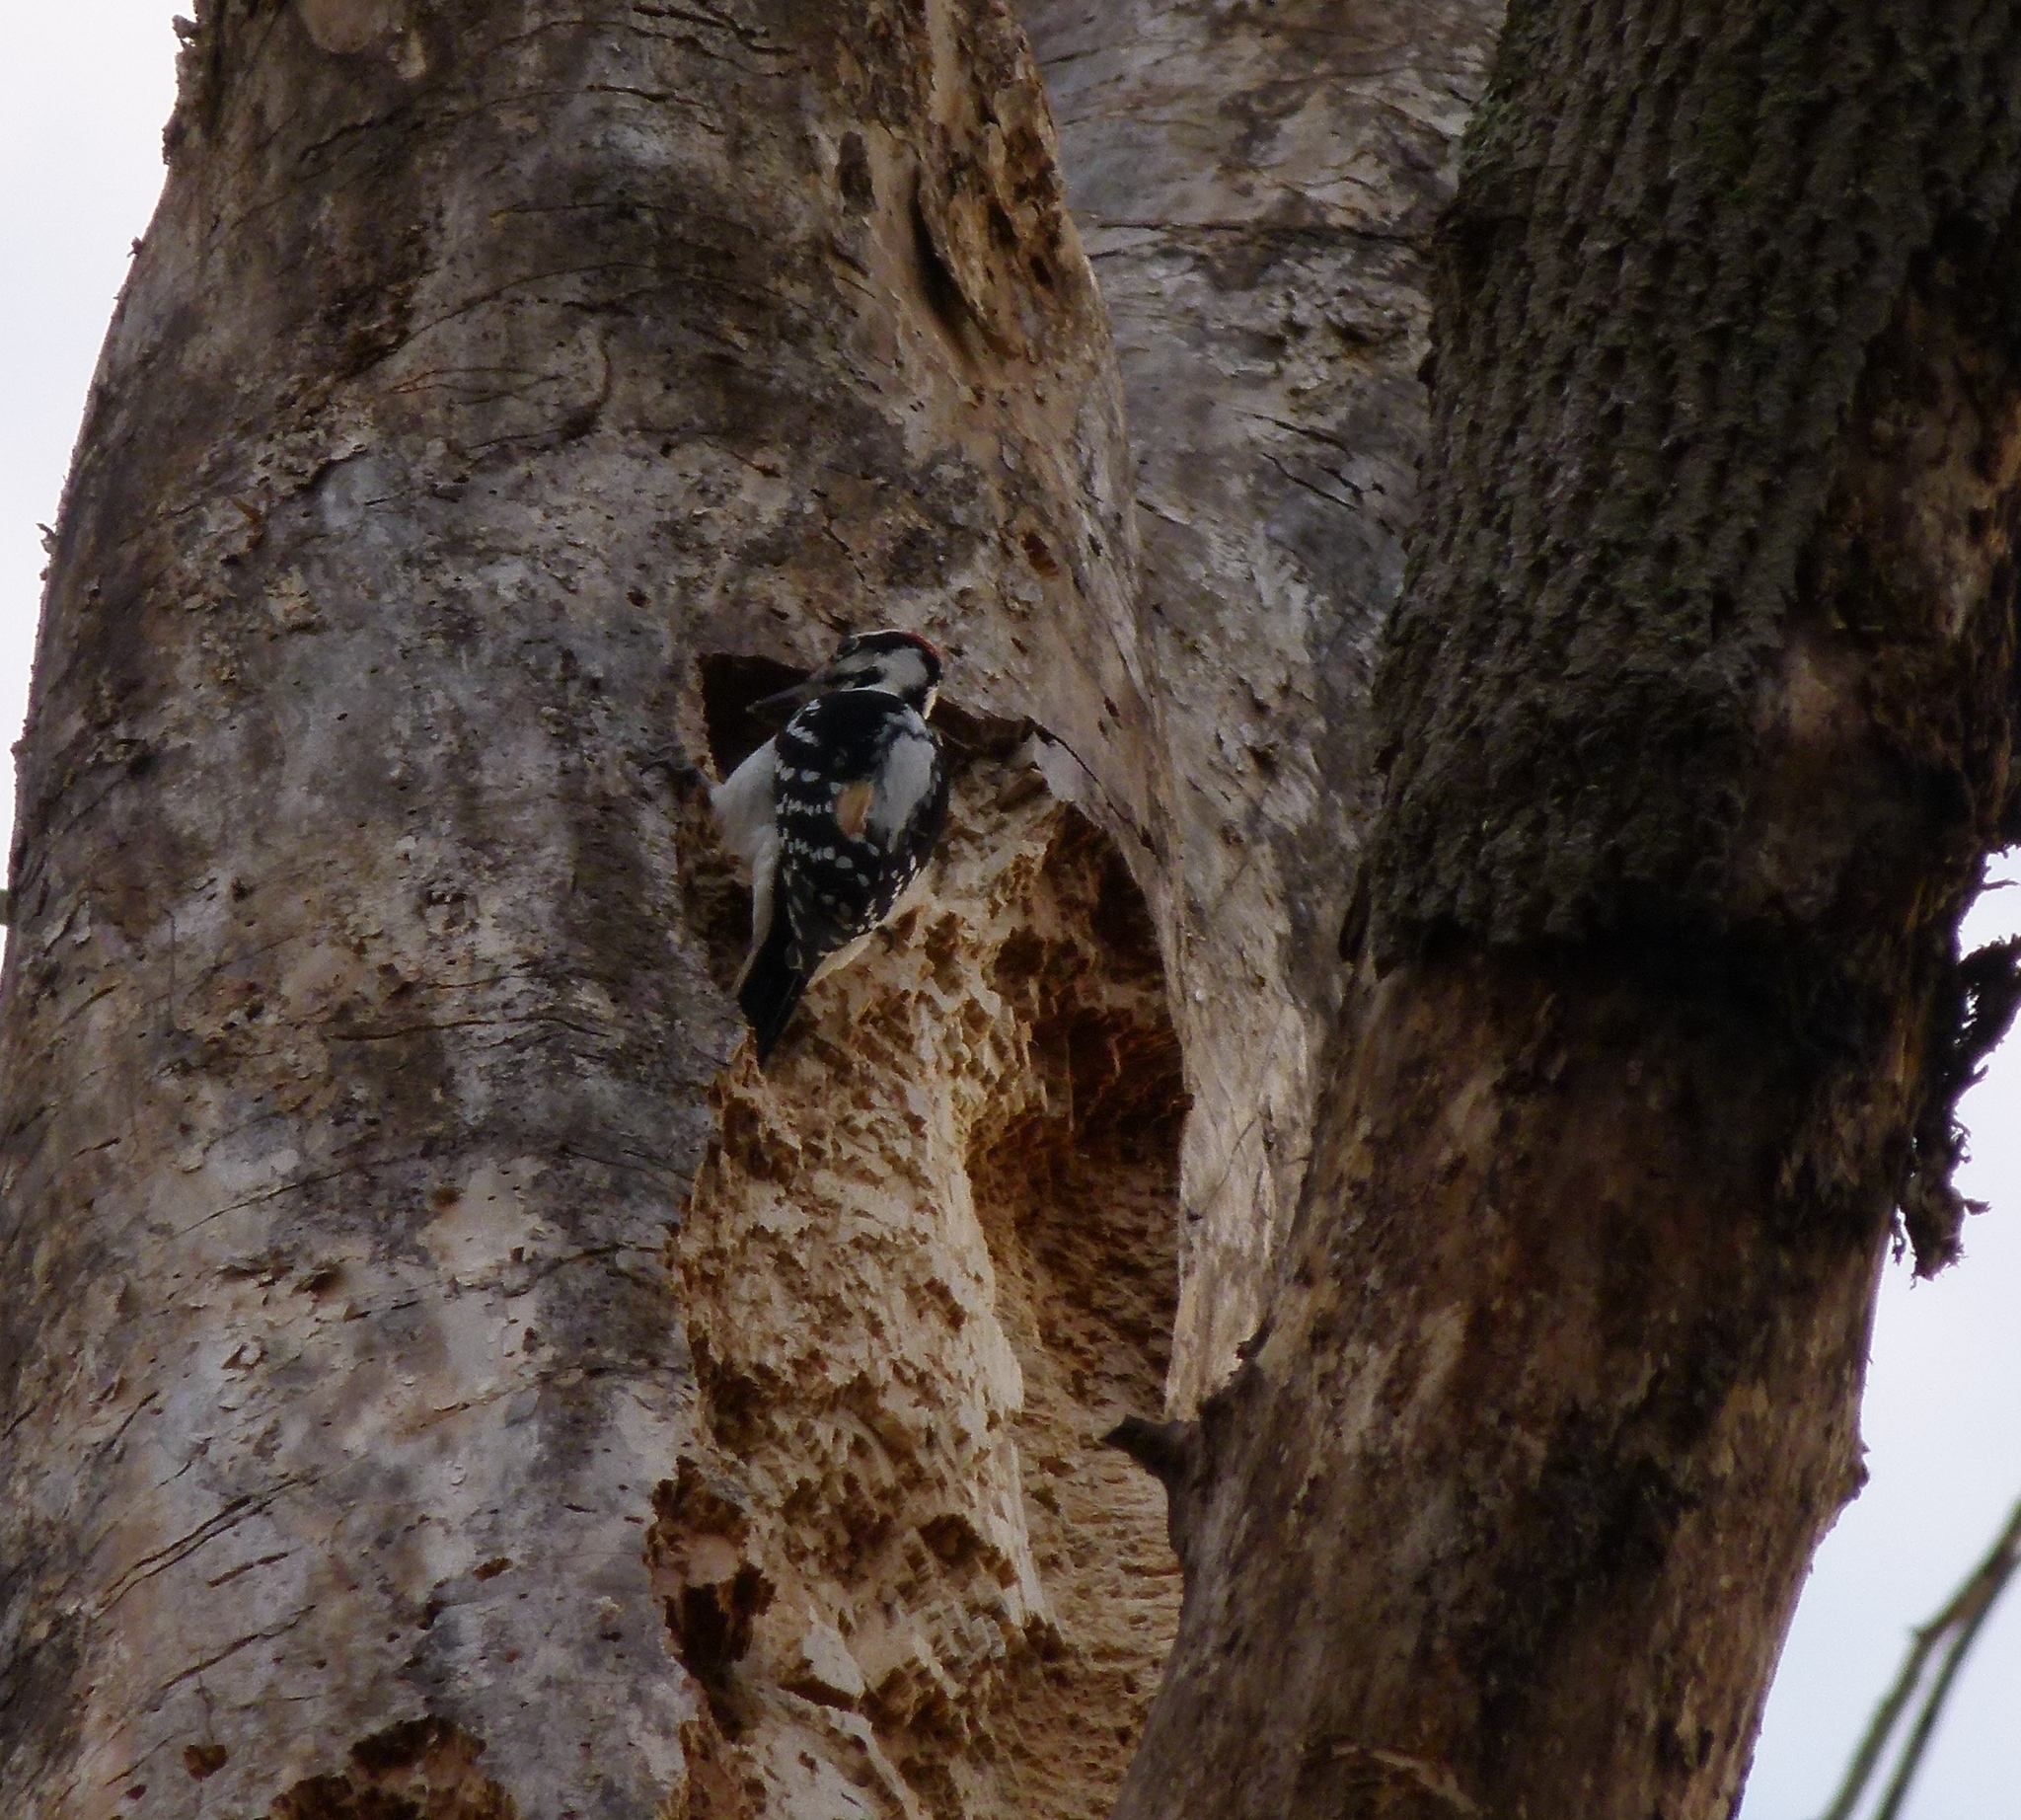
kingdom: Animalia
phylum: Chordata
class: Aves
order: Piciformes
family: Picidae
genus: Leuconotopicus
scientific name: Leuconotopicus villosus
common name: Hairy woodpecker
